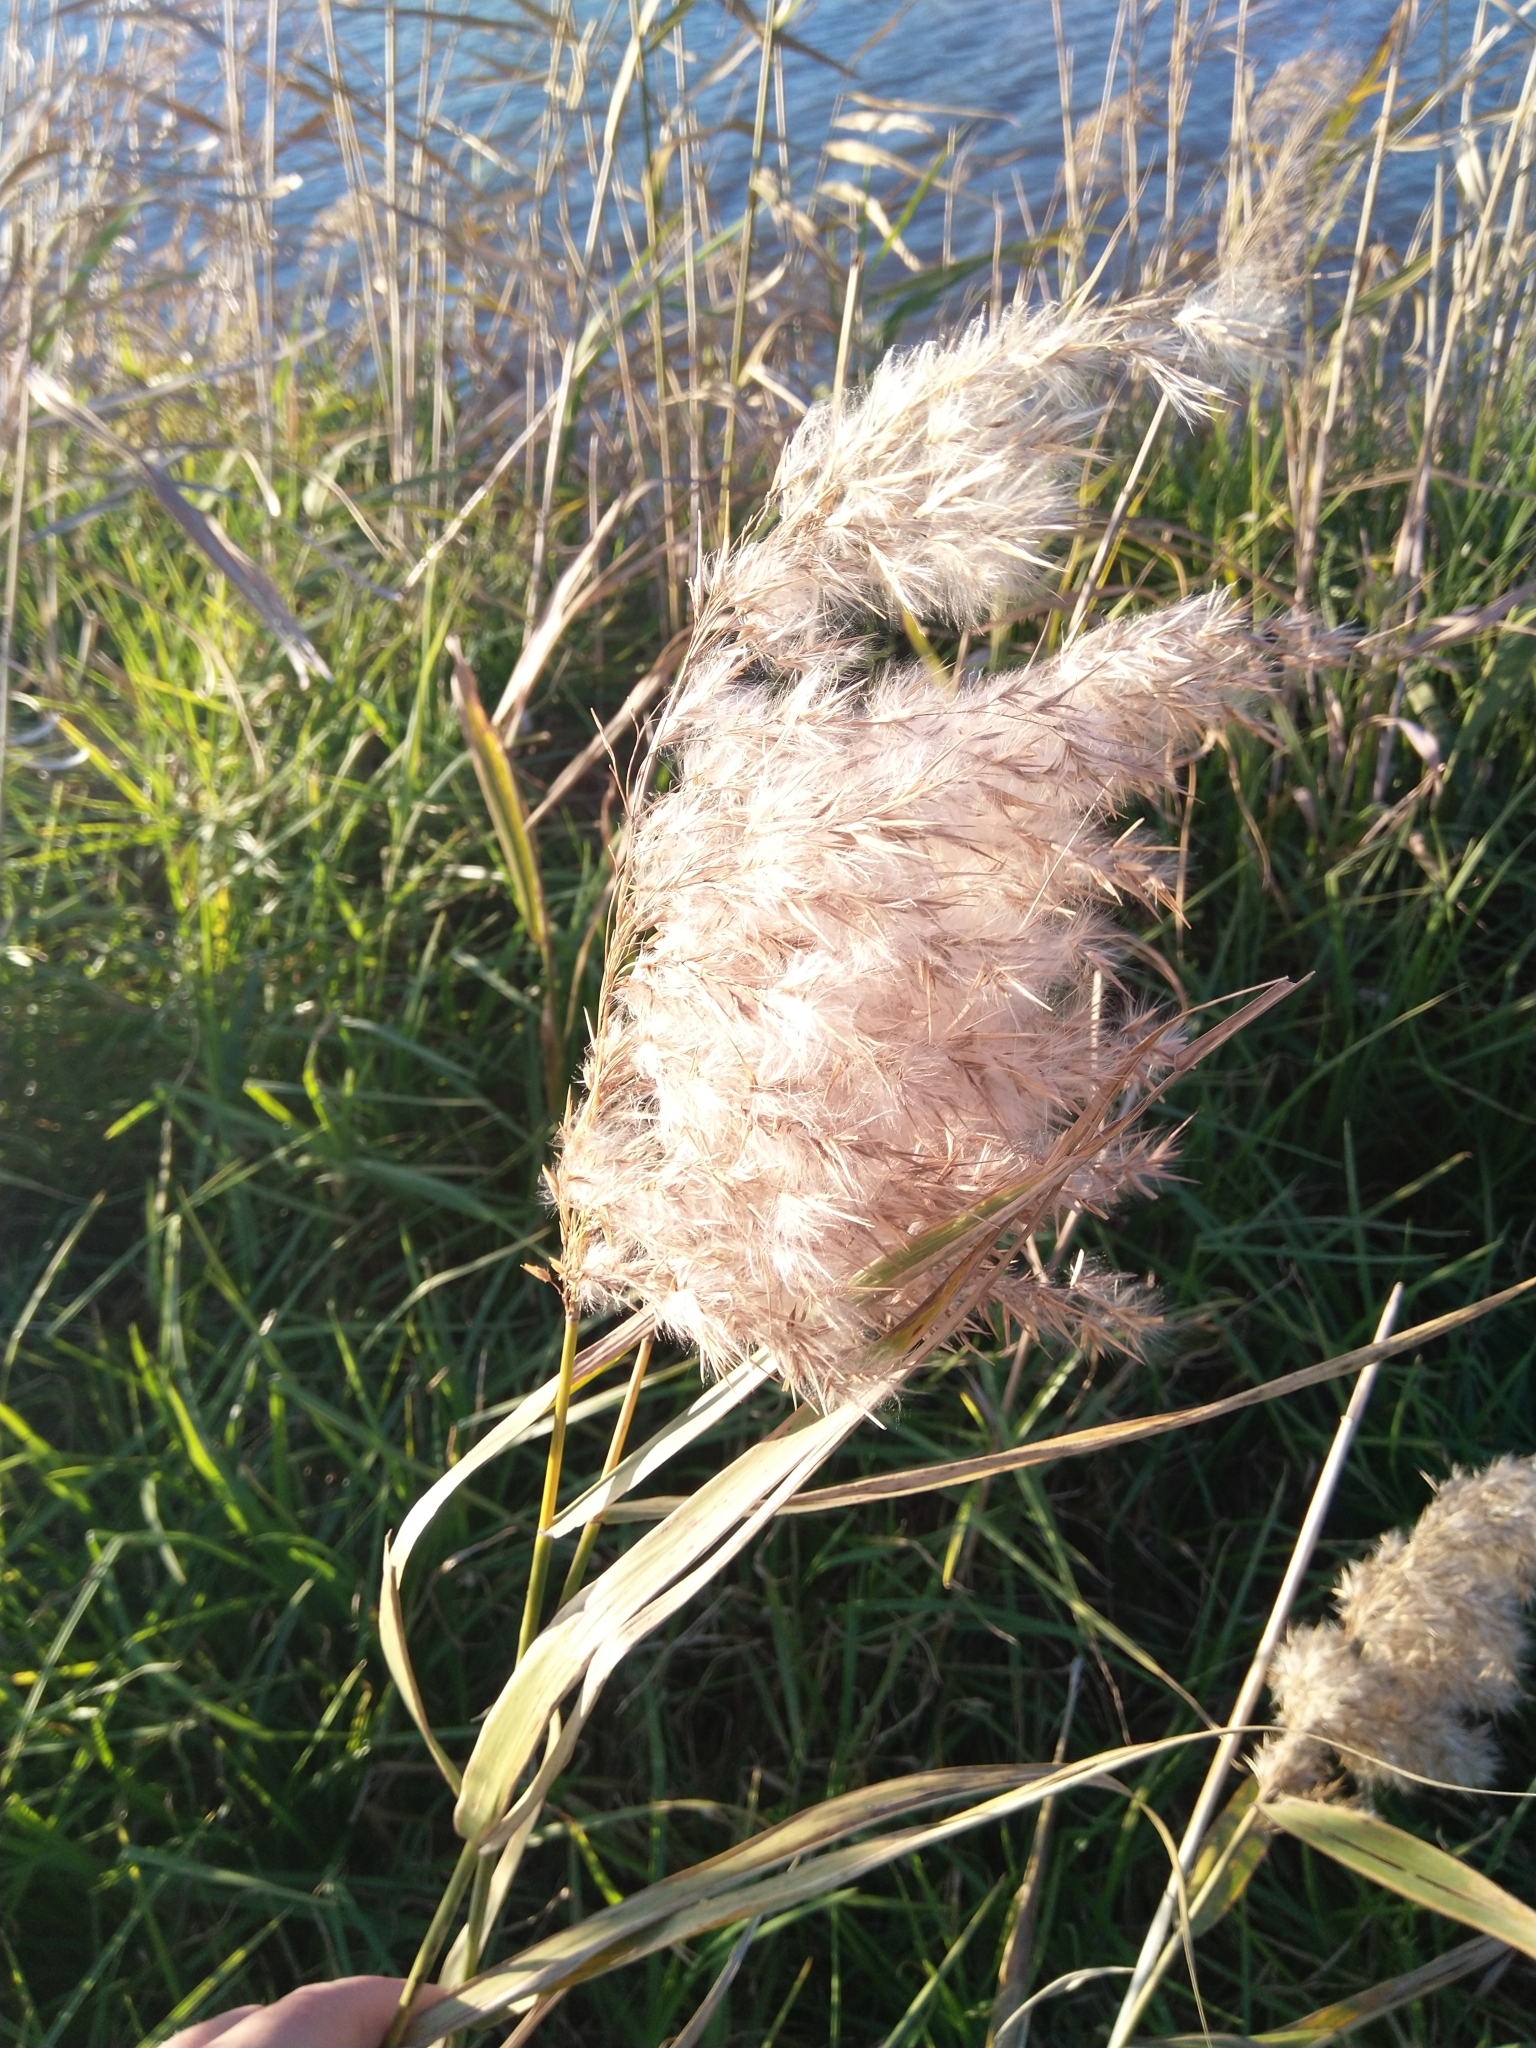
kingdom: Plantae
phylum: Tracheophyta
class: Liliopsida
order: Poales
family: Poaceae
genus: Phragmites
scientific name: Phragmites australis
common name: Common reed
